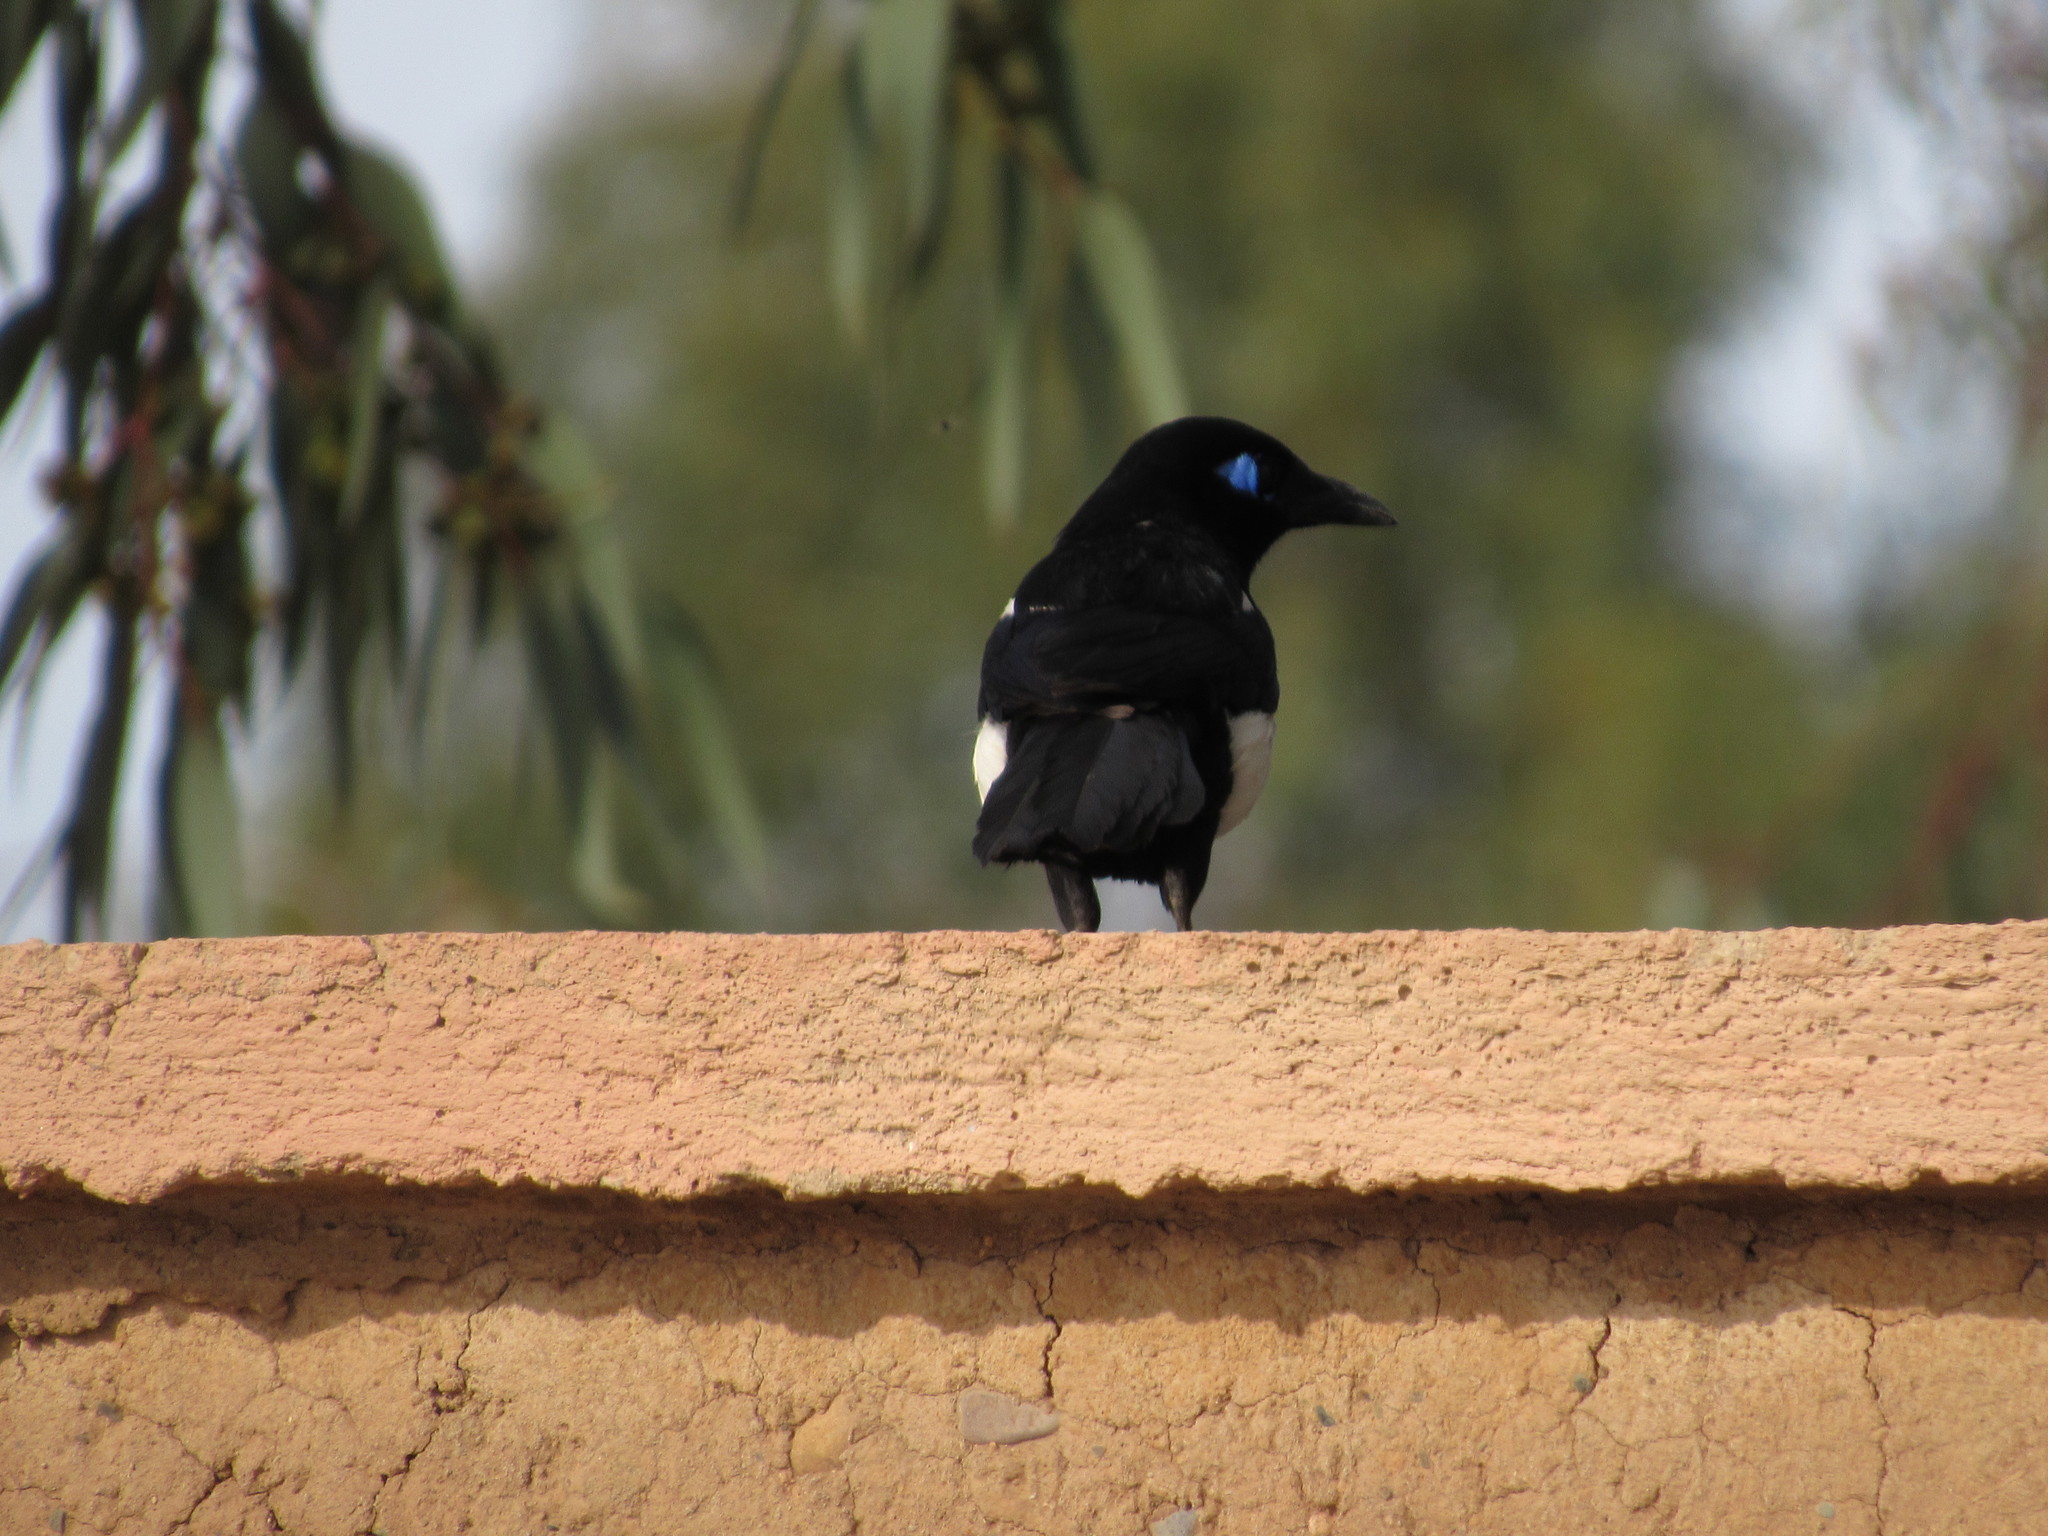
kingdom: Animalia
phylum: Chordata
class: Aves
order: Passeriformes
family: Corvidae
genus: Pica
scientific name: Pica mauritanica
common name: Maghreb magpie
